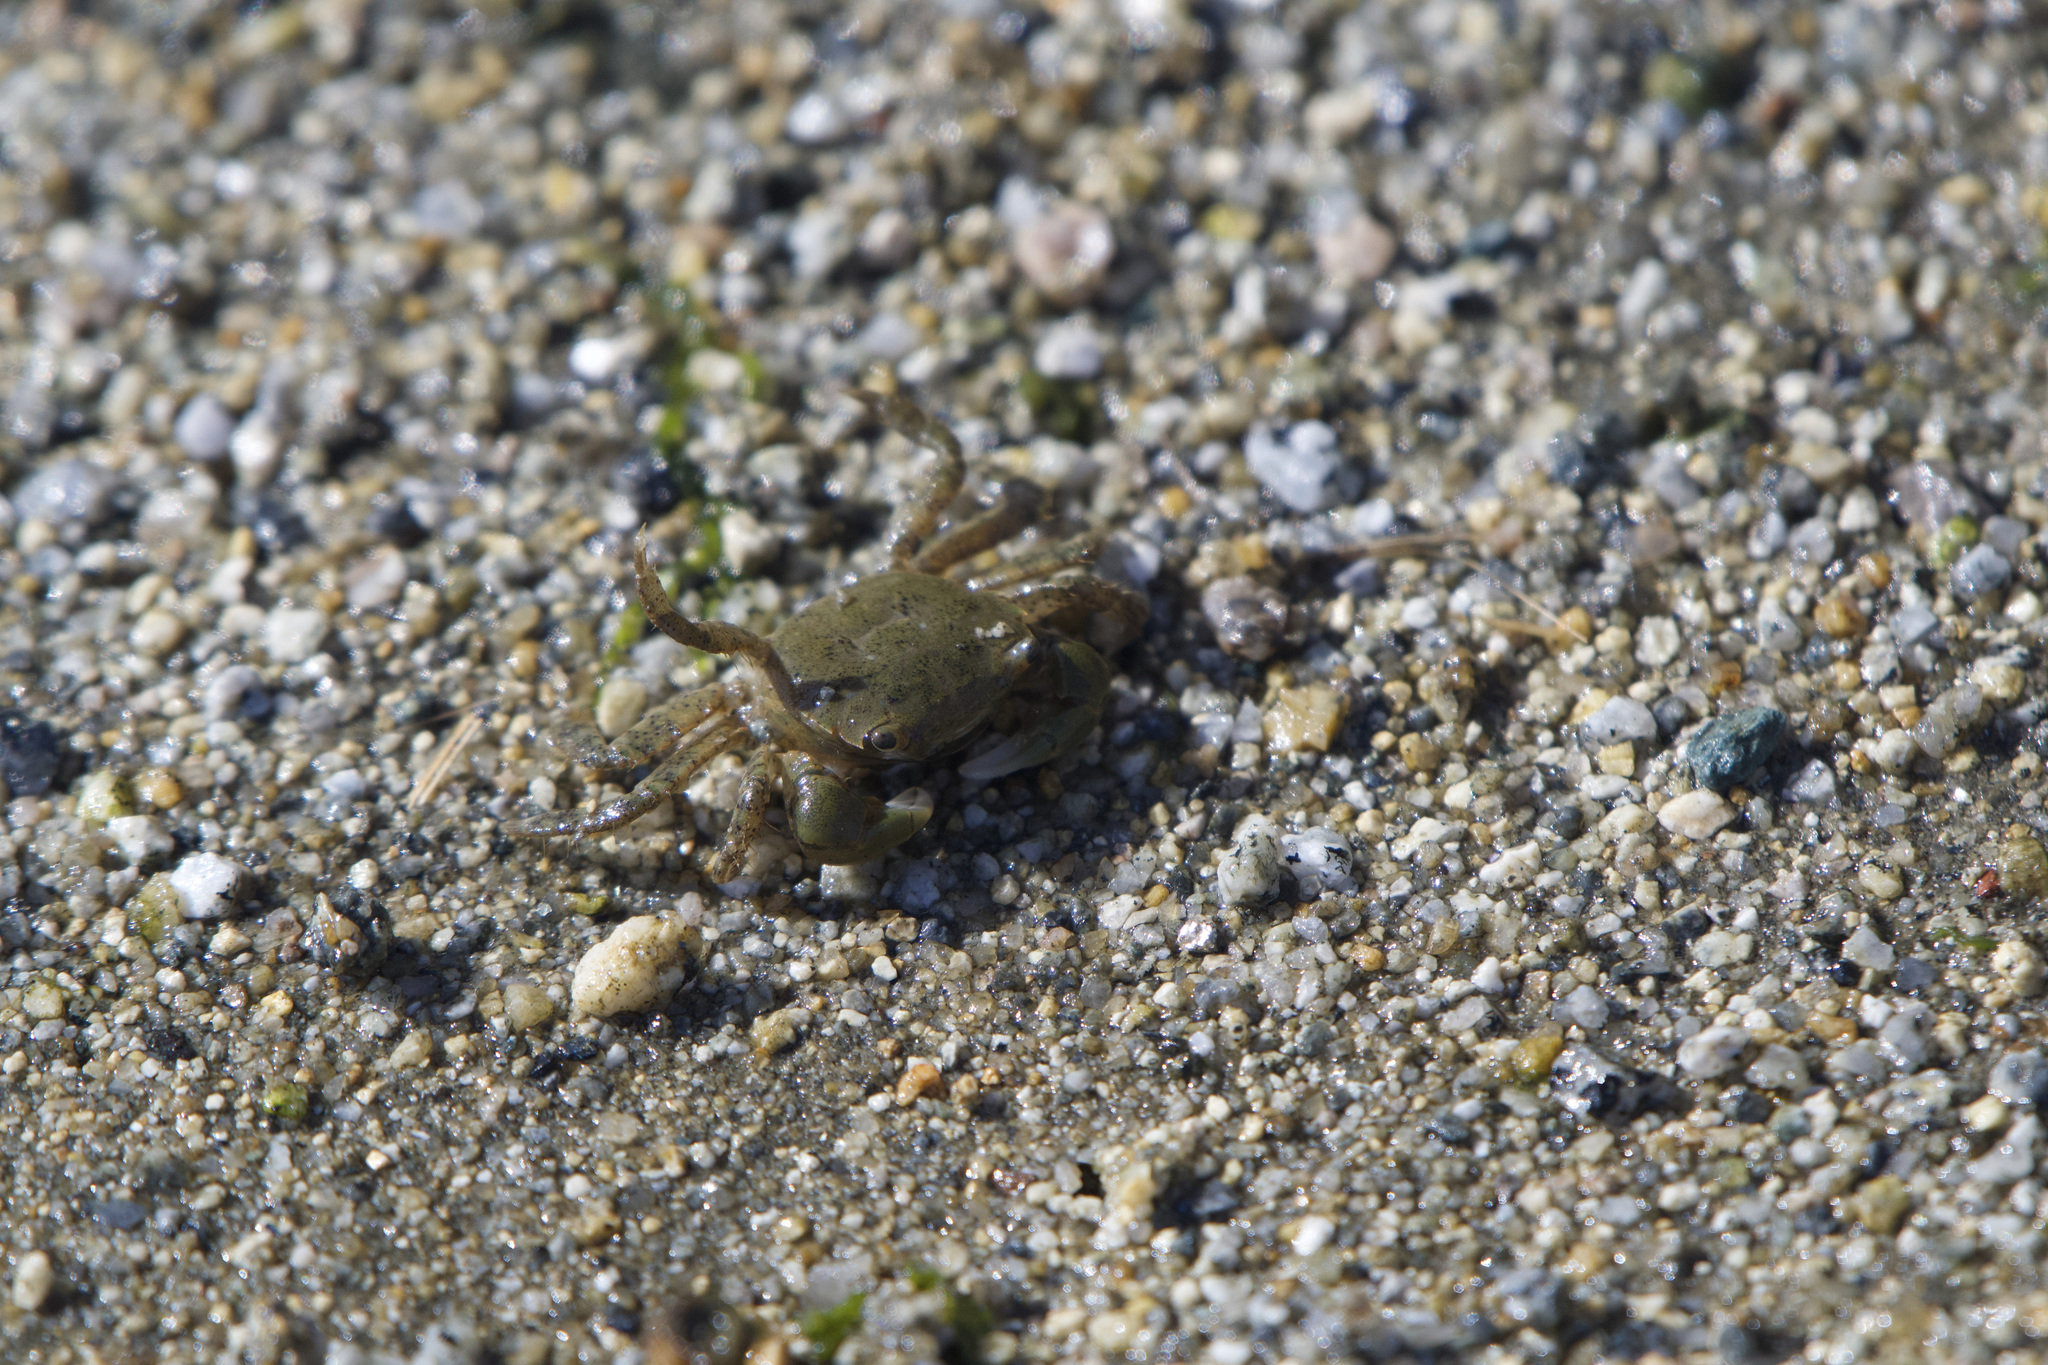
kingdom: Animalia
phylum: Arthropoda
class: Malacostraca
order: Decapoda
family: Varunidae
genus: Hemigrapsus
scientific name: Hemigrapsus oregonensis
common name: Yellow shore crab
